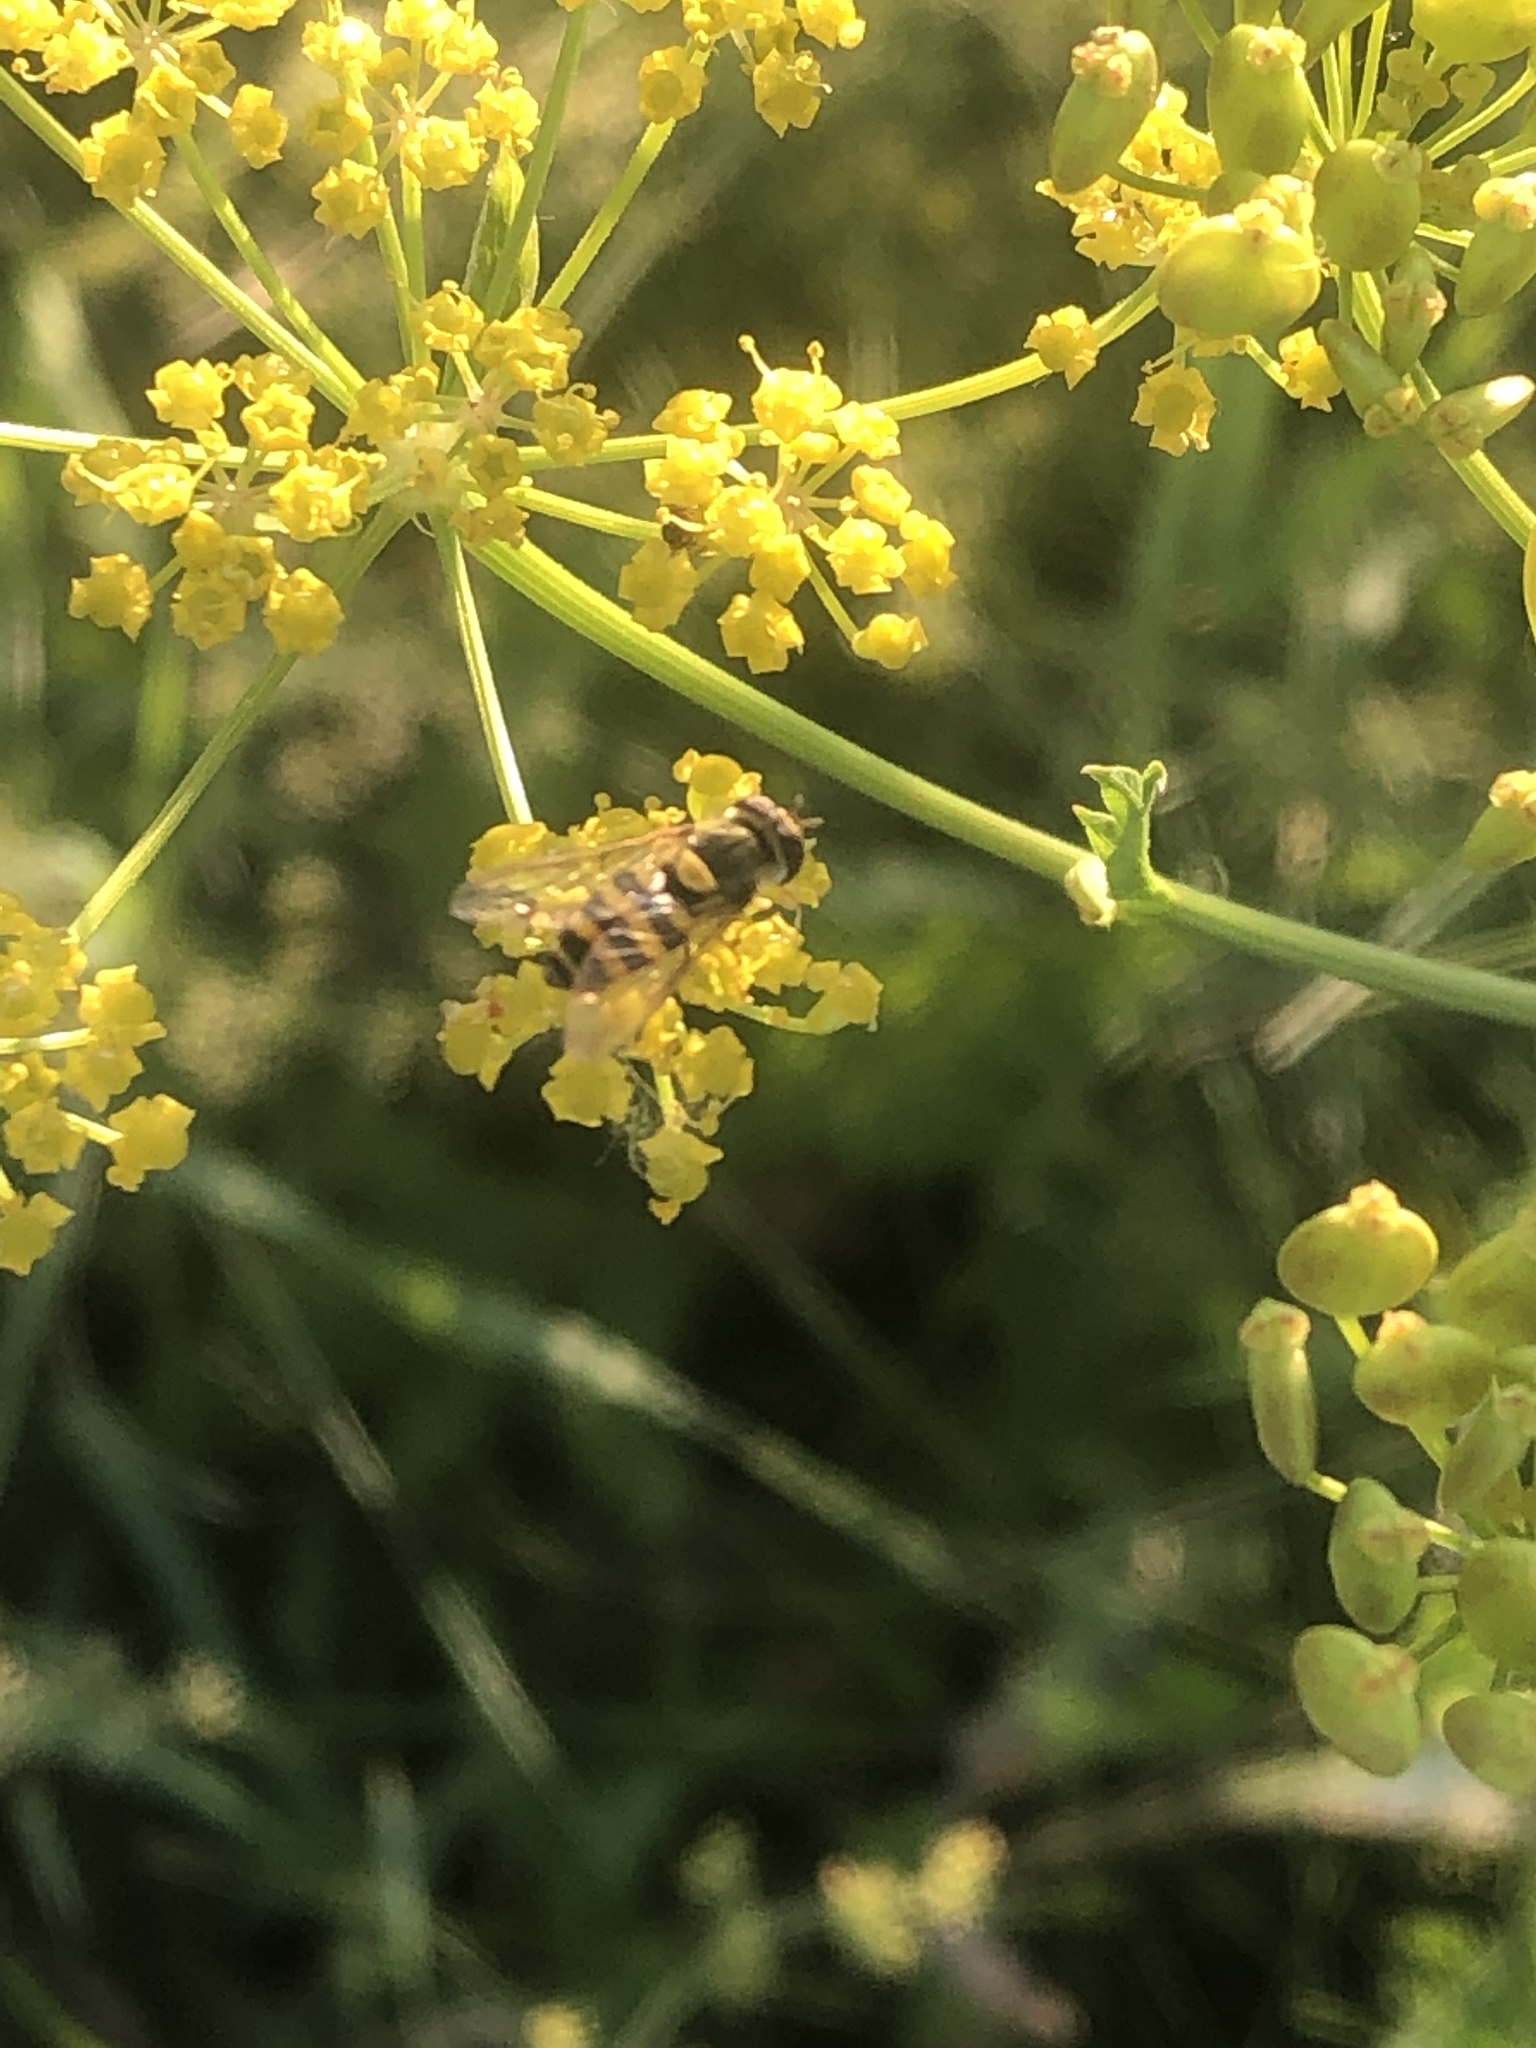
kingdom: Animalia
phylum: Arthropoda
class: Insecta
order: Diptera
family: Syrphidae
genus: Syrphus
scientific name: Syrphus
